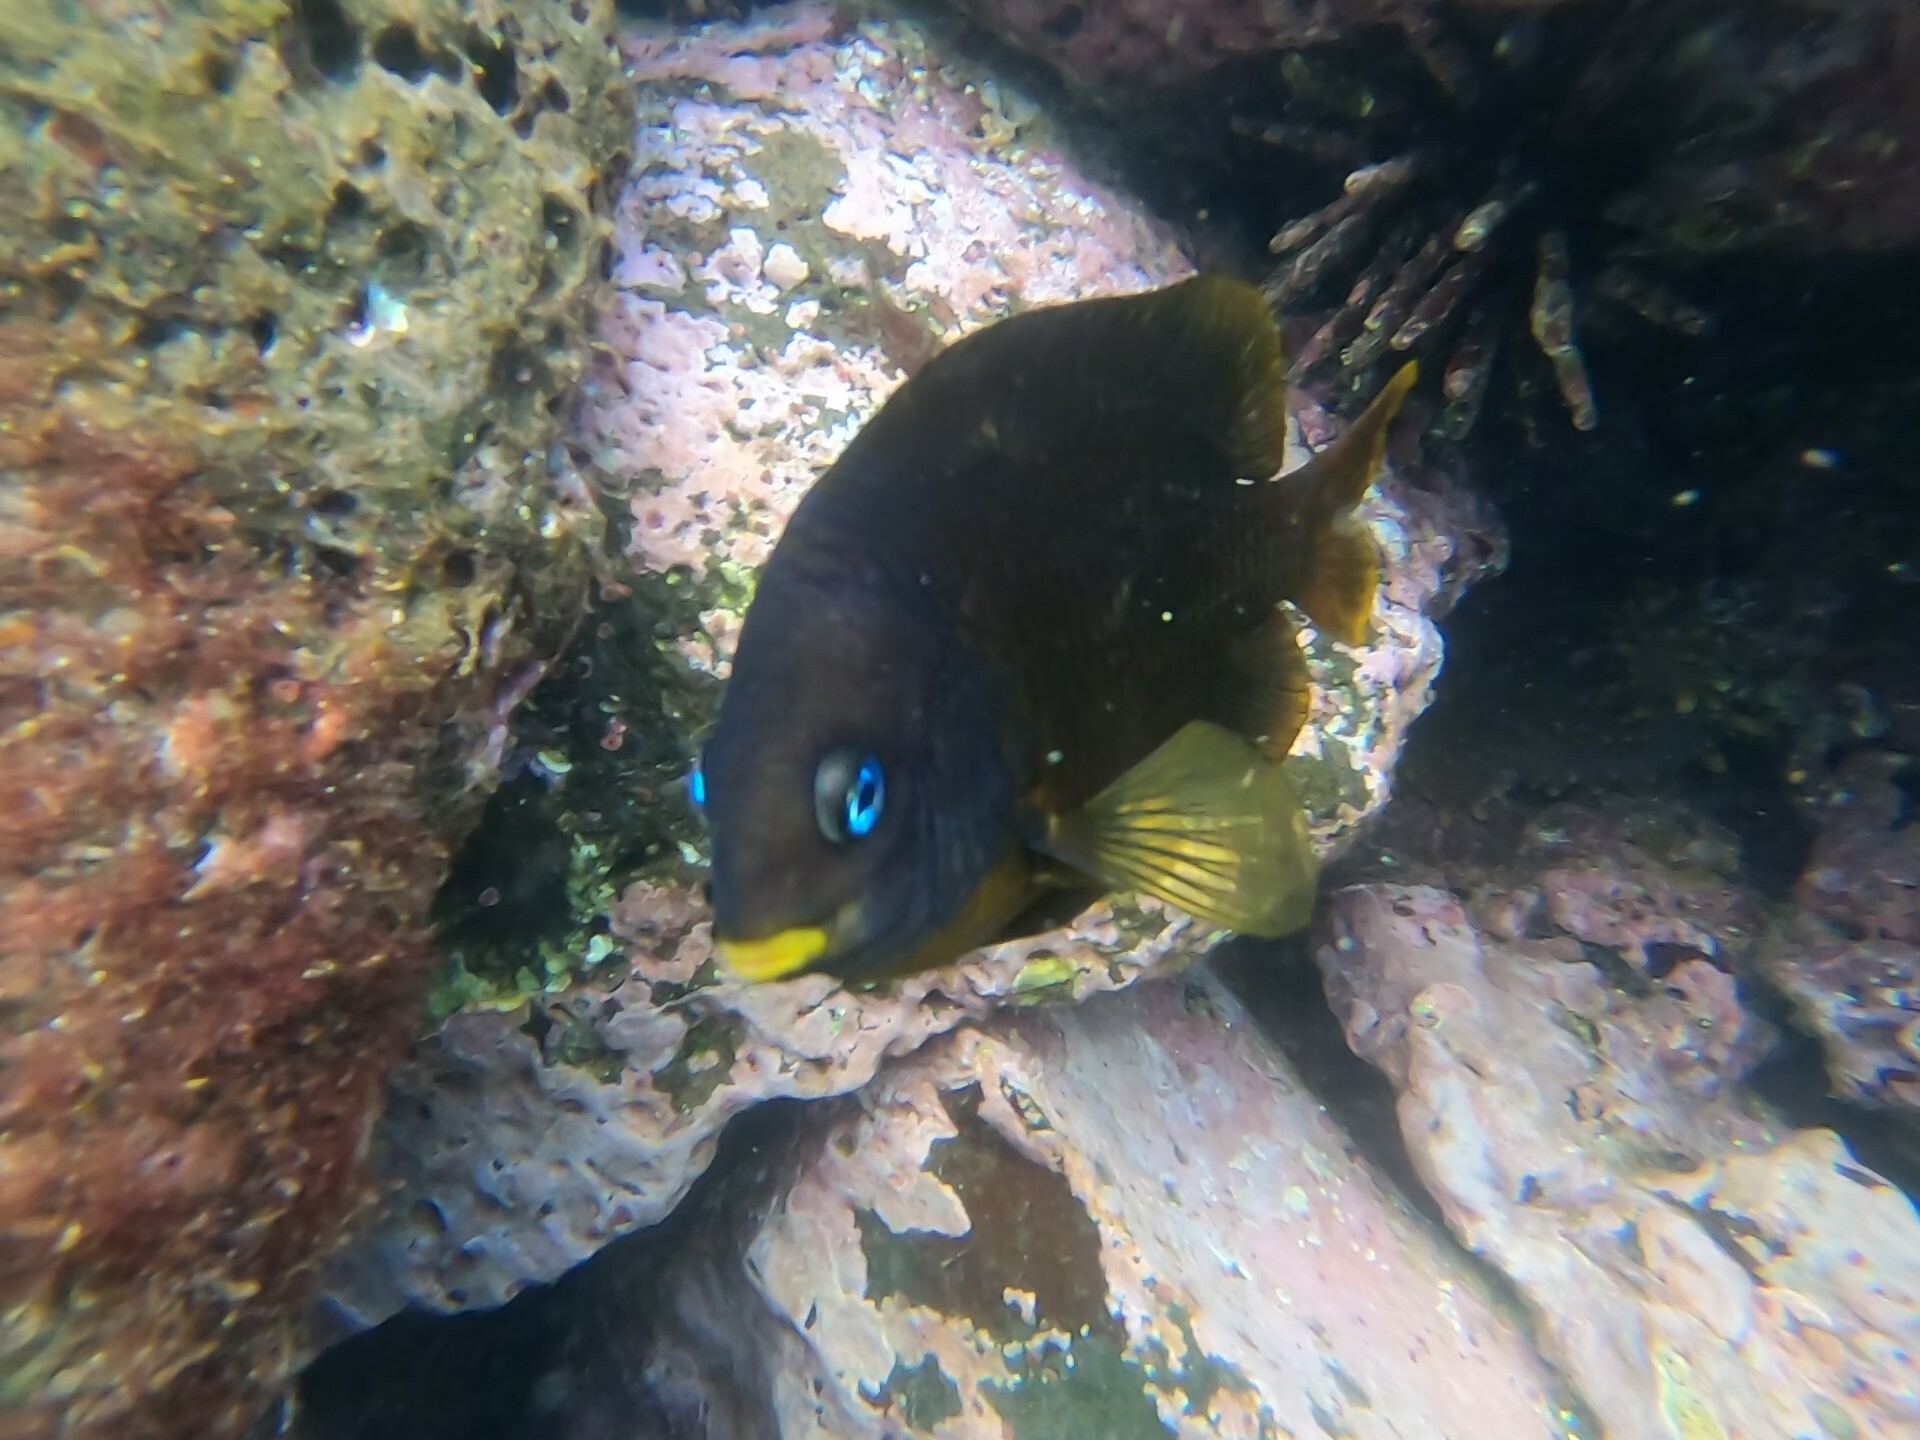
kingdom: Animalia
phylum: Chordata
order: Perciformes
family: Pomacentridae
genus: Stegastes
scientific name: Stegastes arcifrons
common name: Galapagos gregory
